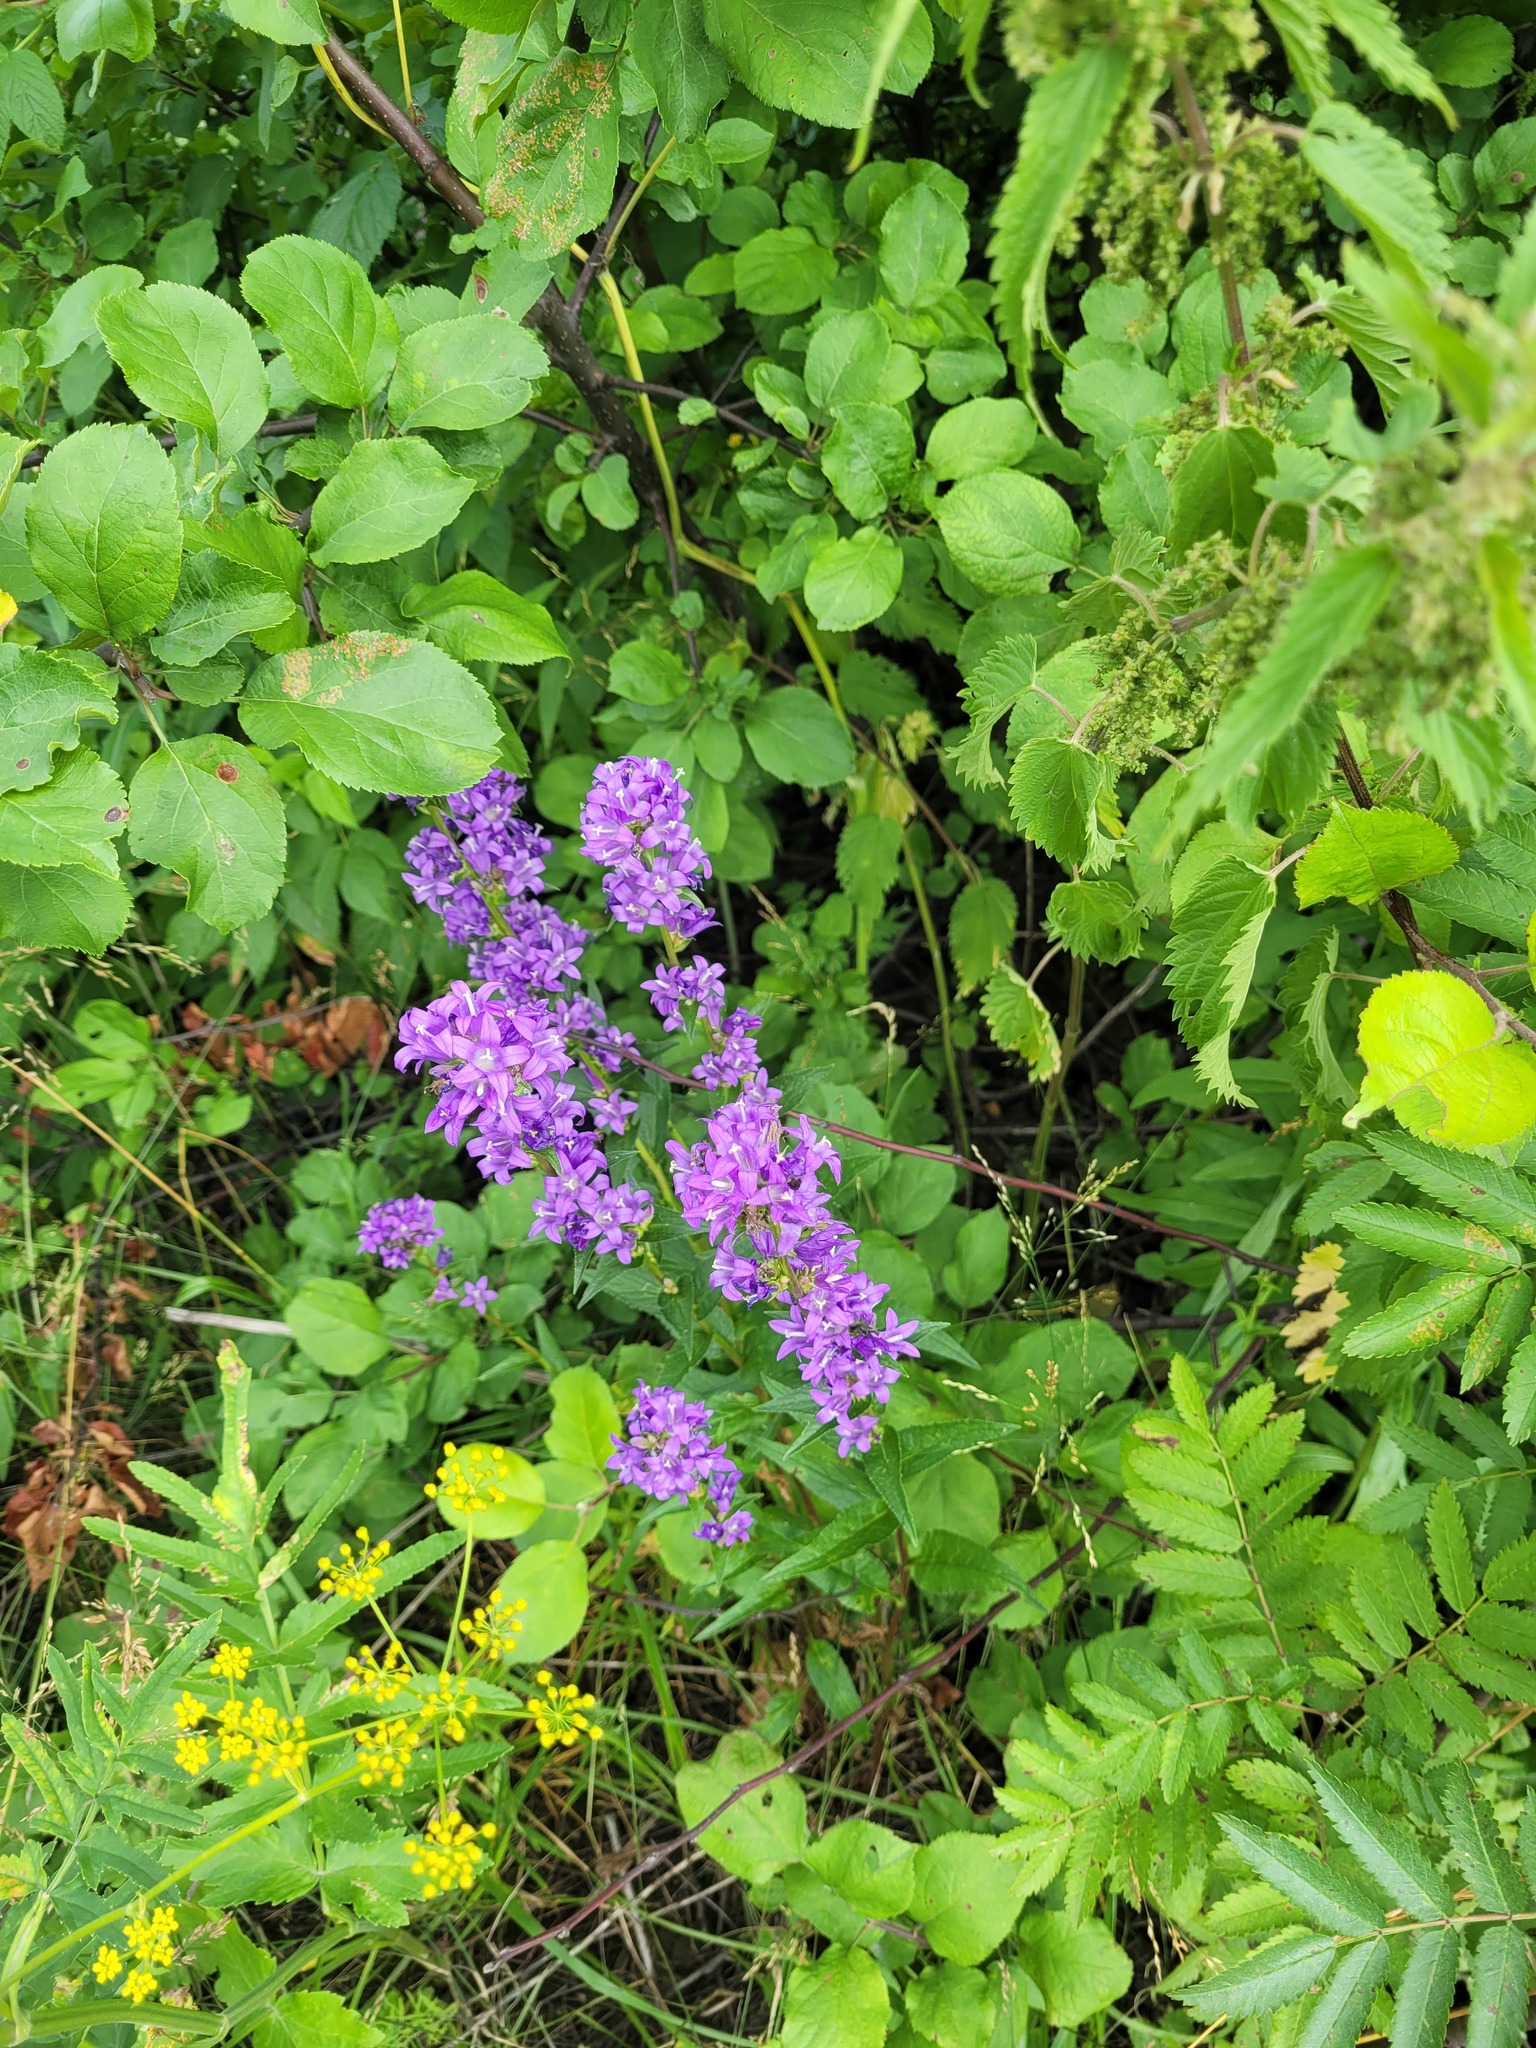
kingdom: Plantae
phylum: Tracheophyta
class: Magnoliopsida
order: Asterales
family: Campanulaceae
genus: Campanula
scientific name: Campanula glomerata
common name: Clustered bellflower
